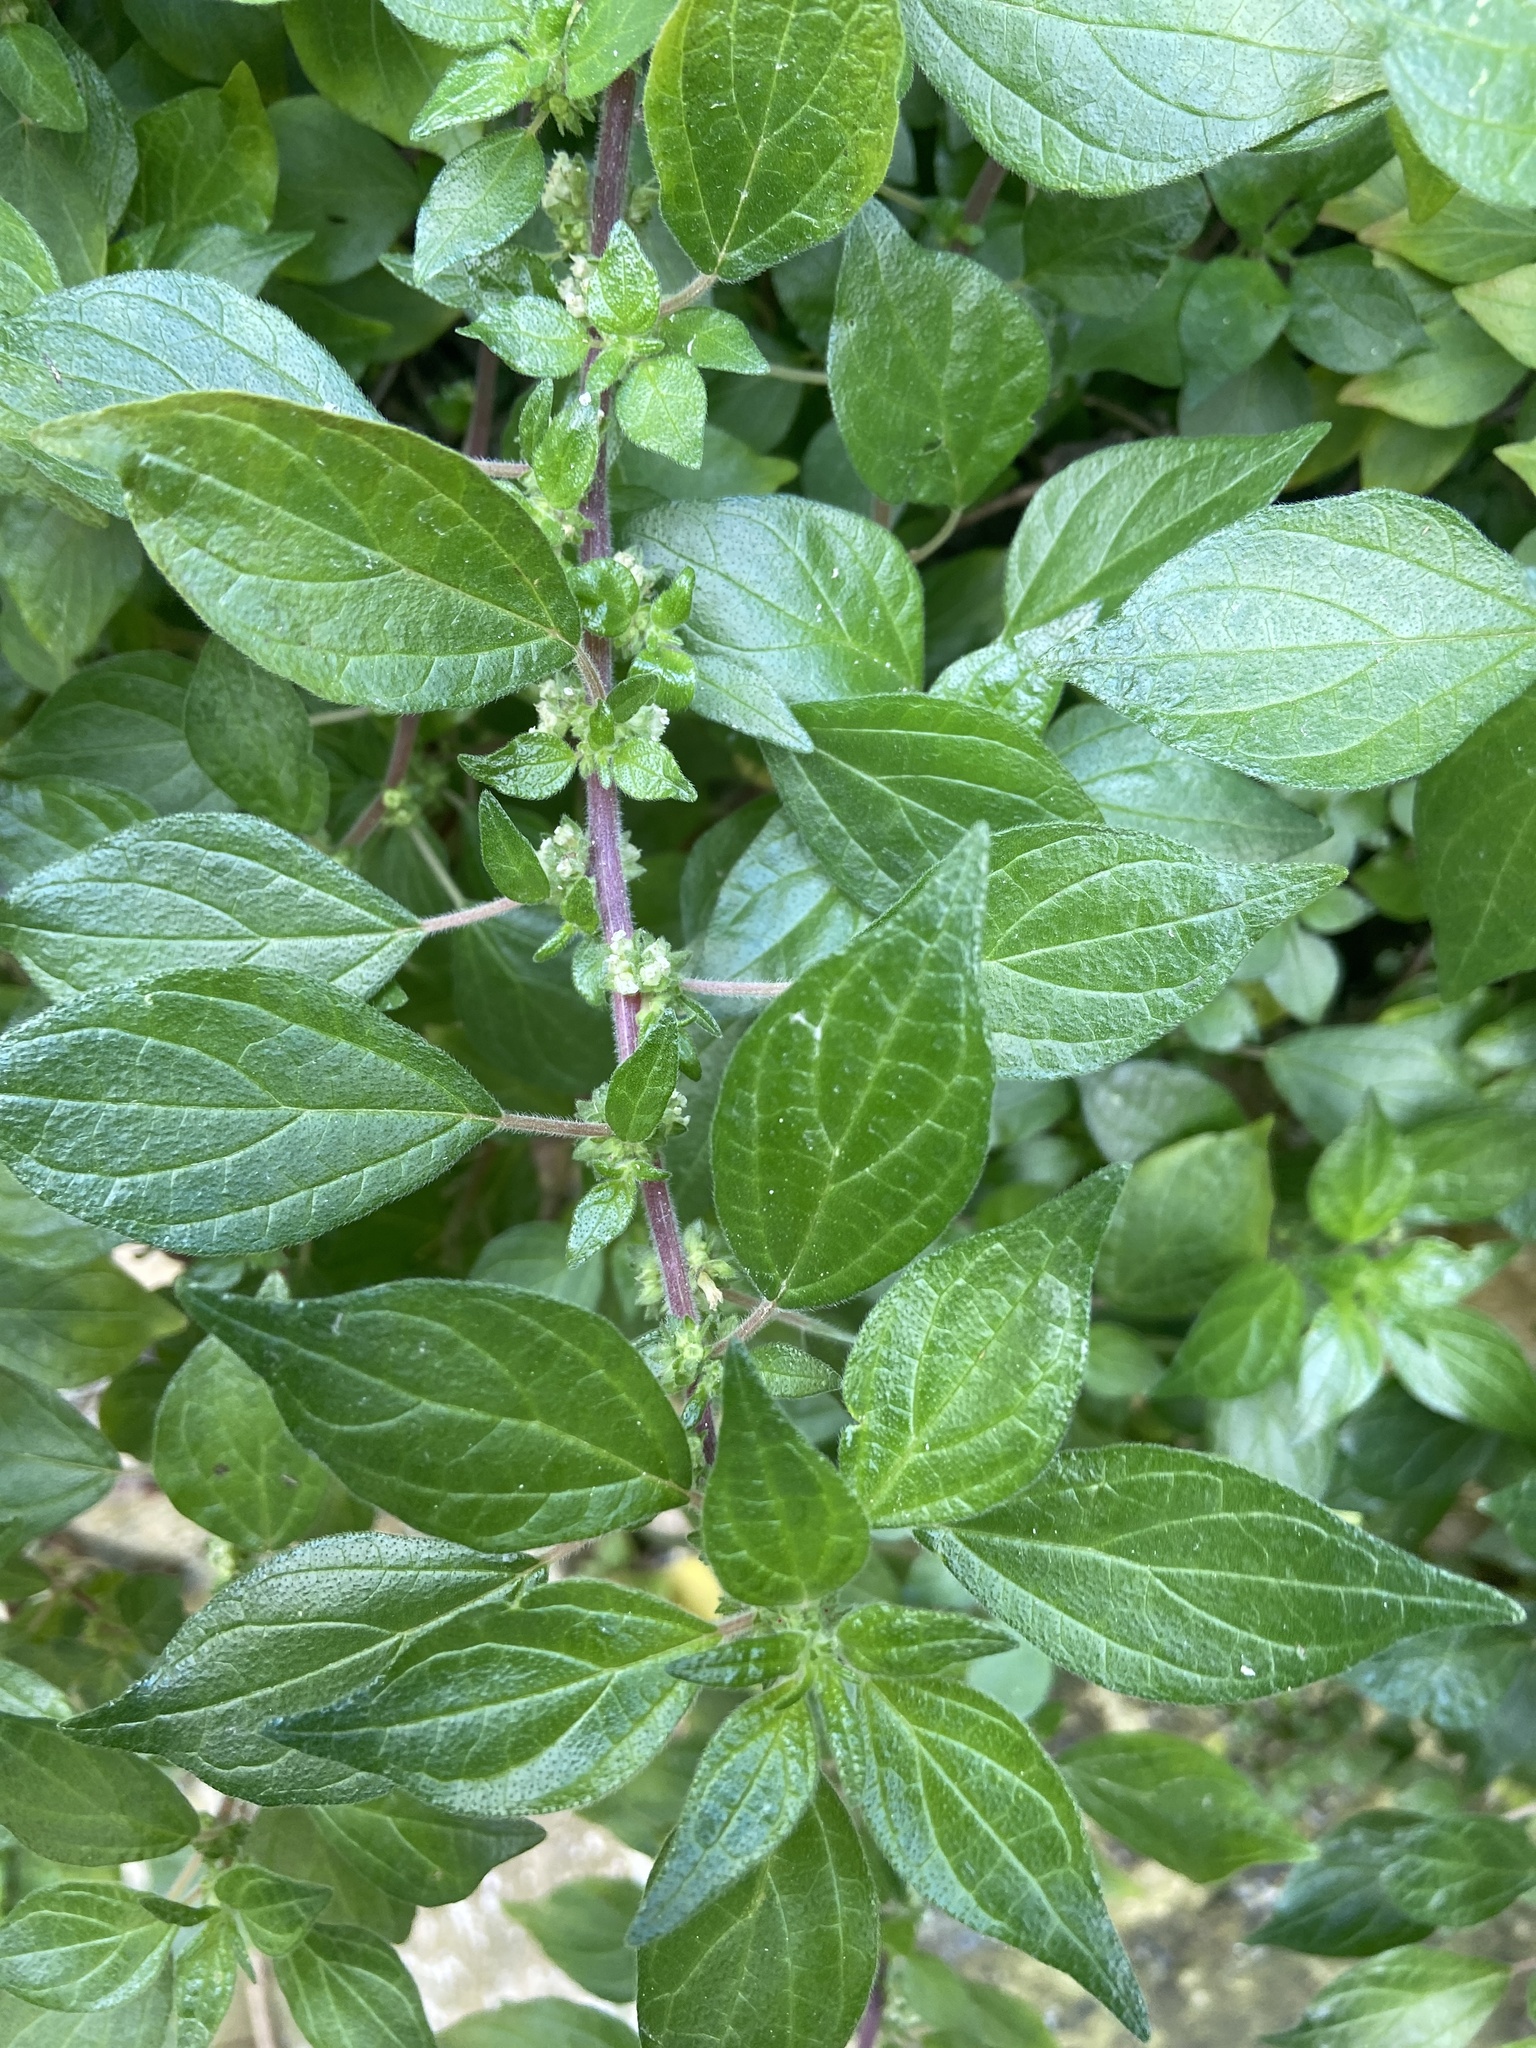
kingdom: Plantae
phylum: Tracheophyta
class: Magnoliopsida
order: Rosales
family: Urticaceae
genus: Parietaria
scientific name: Parietaria judaica
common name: Pellitory-of-the-wall
